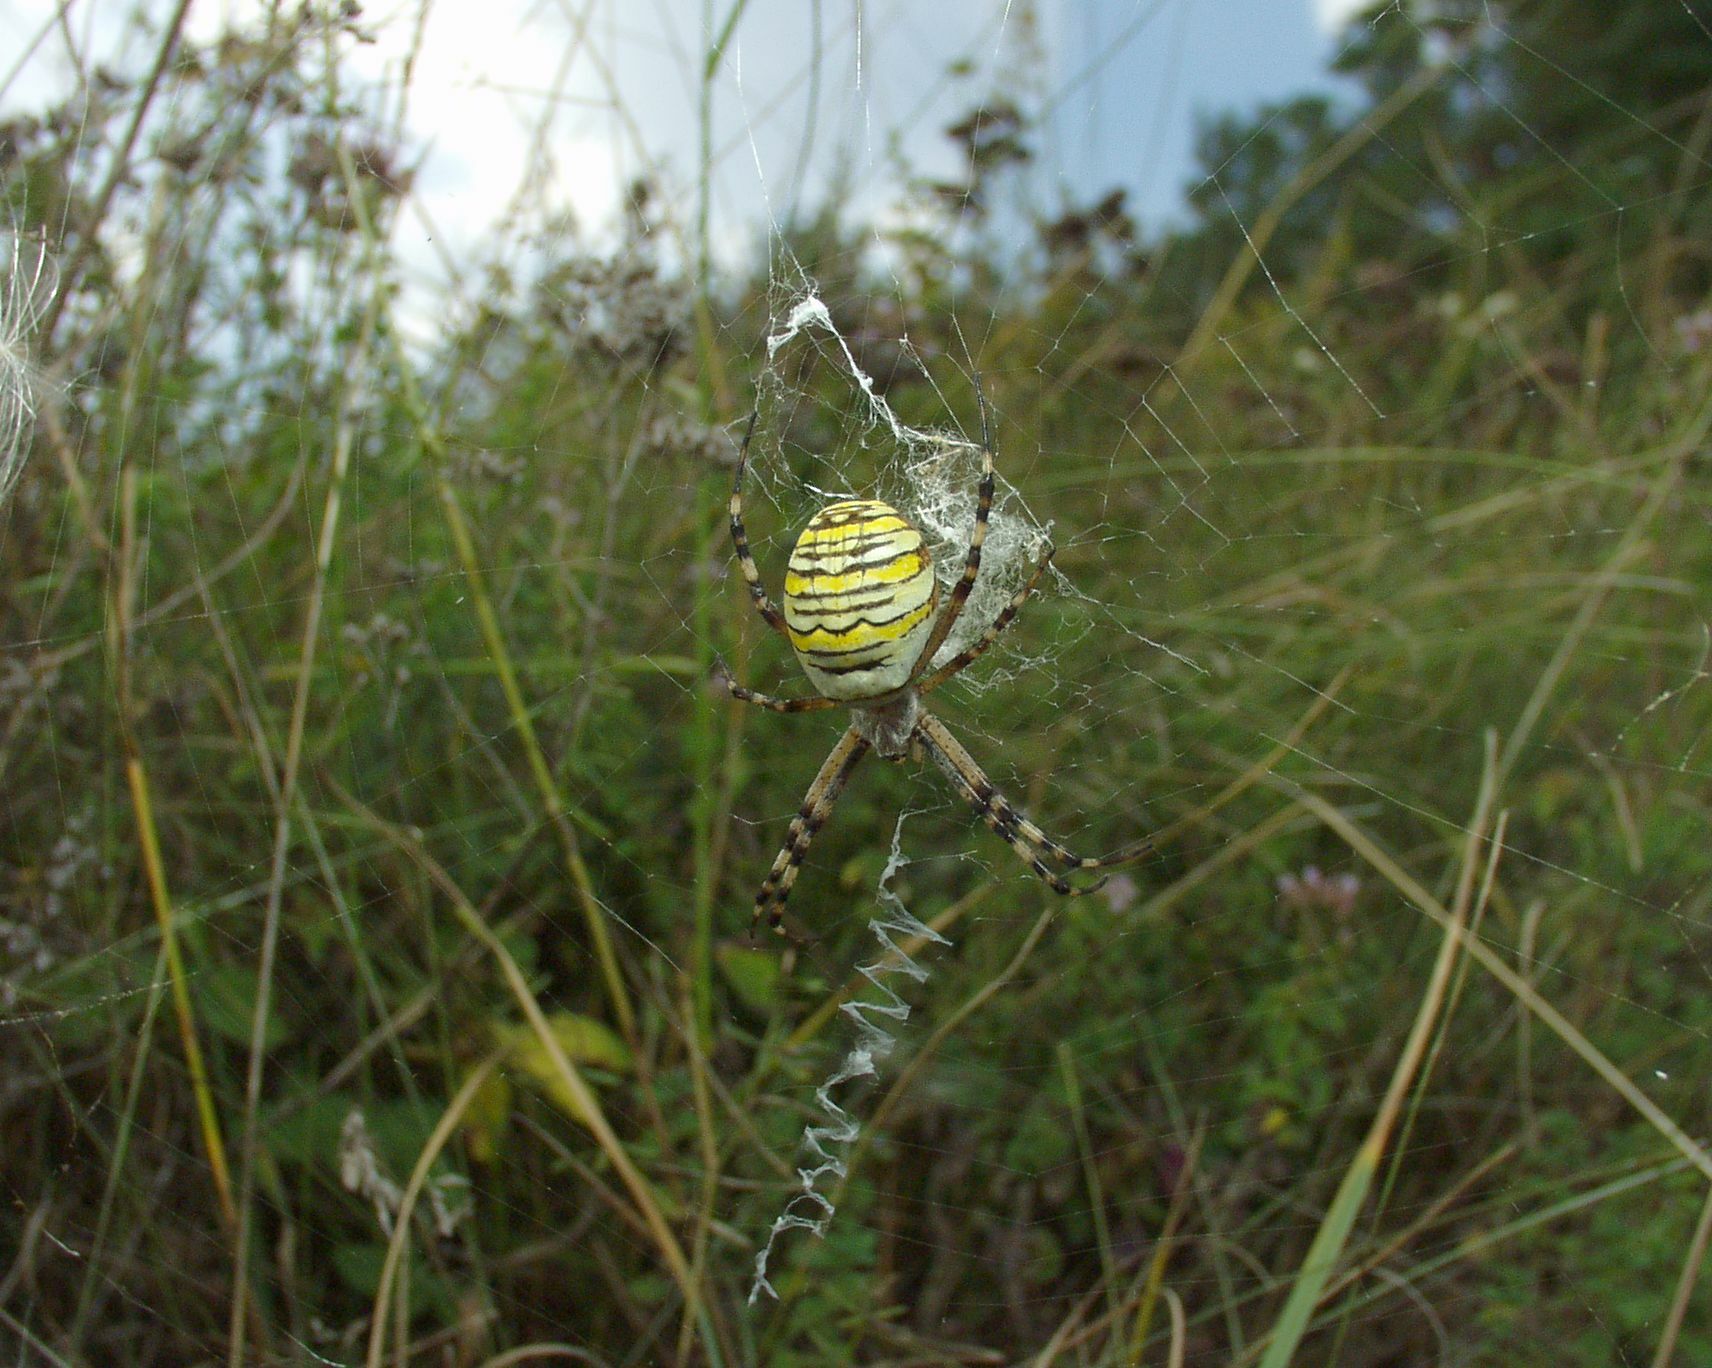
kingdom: Animalia
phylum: Arthropoda
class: Arachnida
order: Araneae
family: Araneidae
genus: Argiope
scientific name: Argiope bruennichi
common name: Wasp spider
